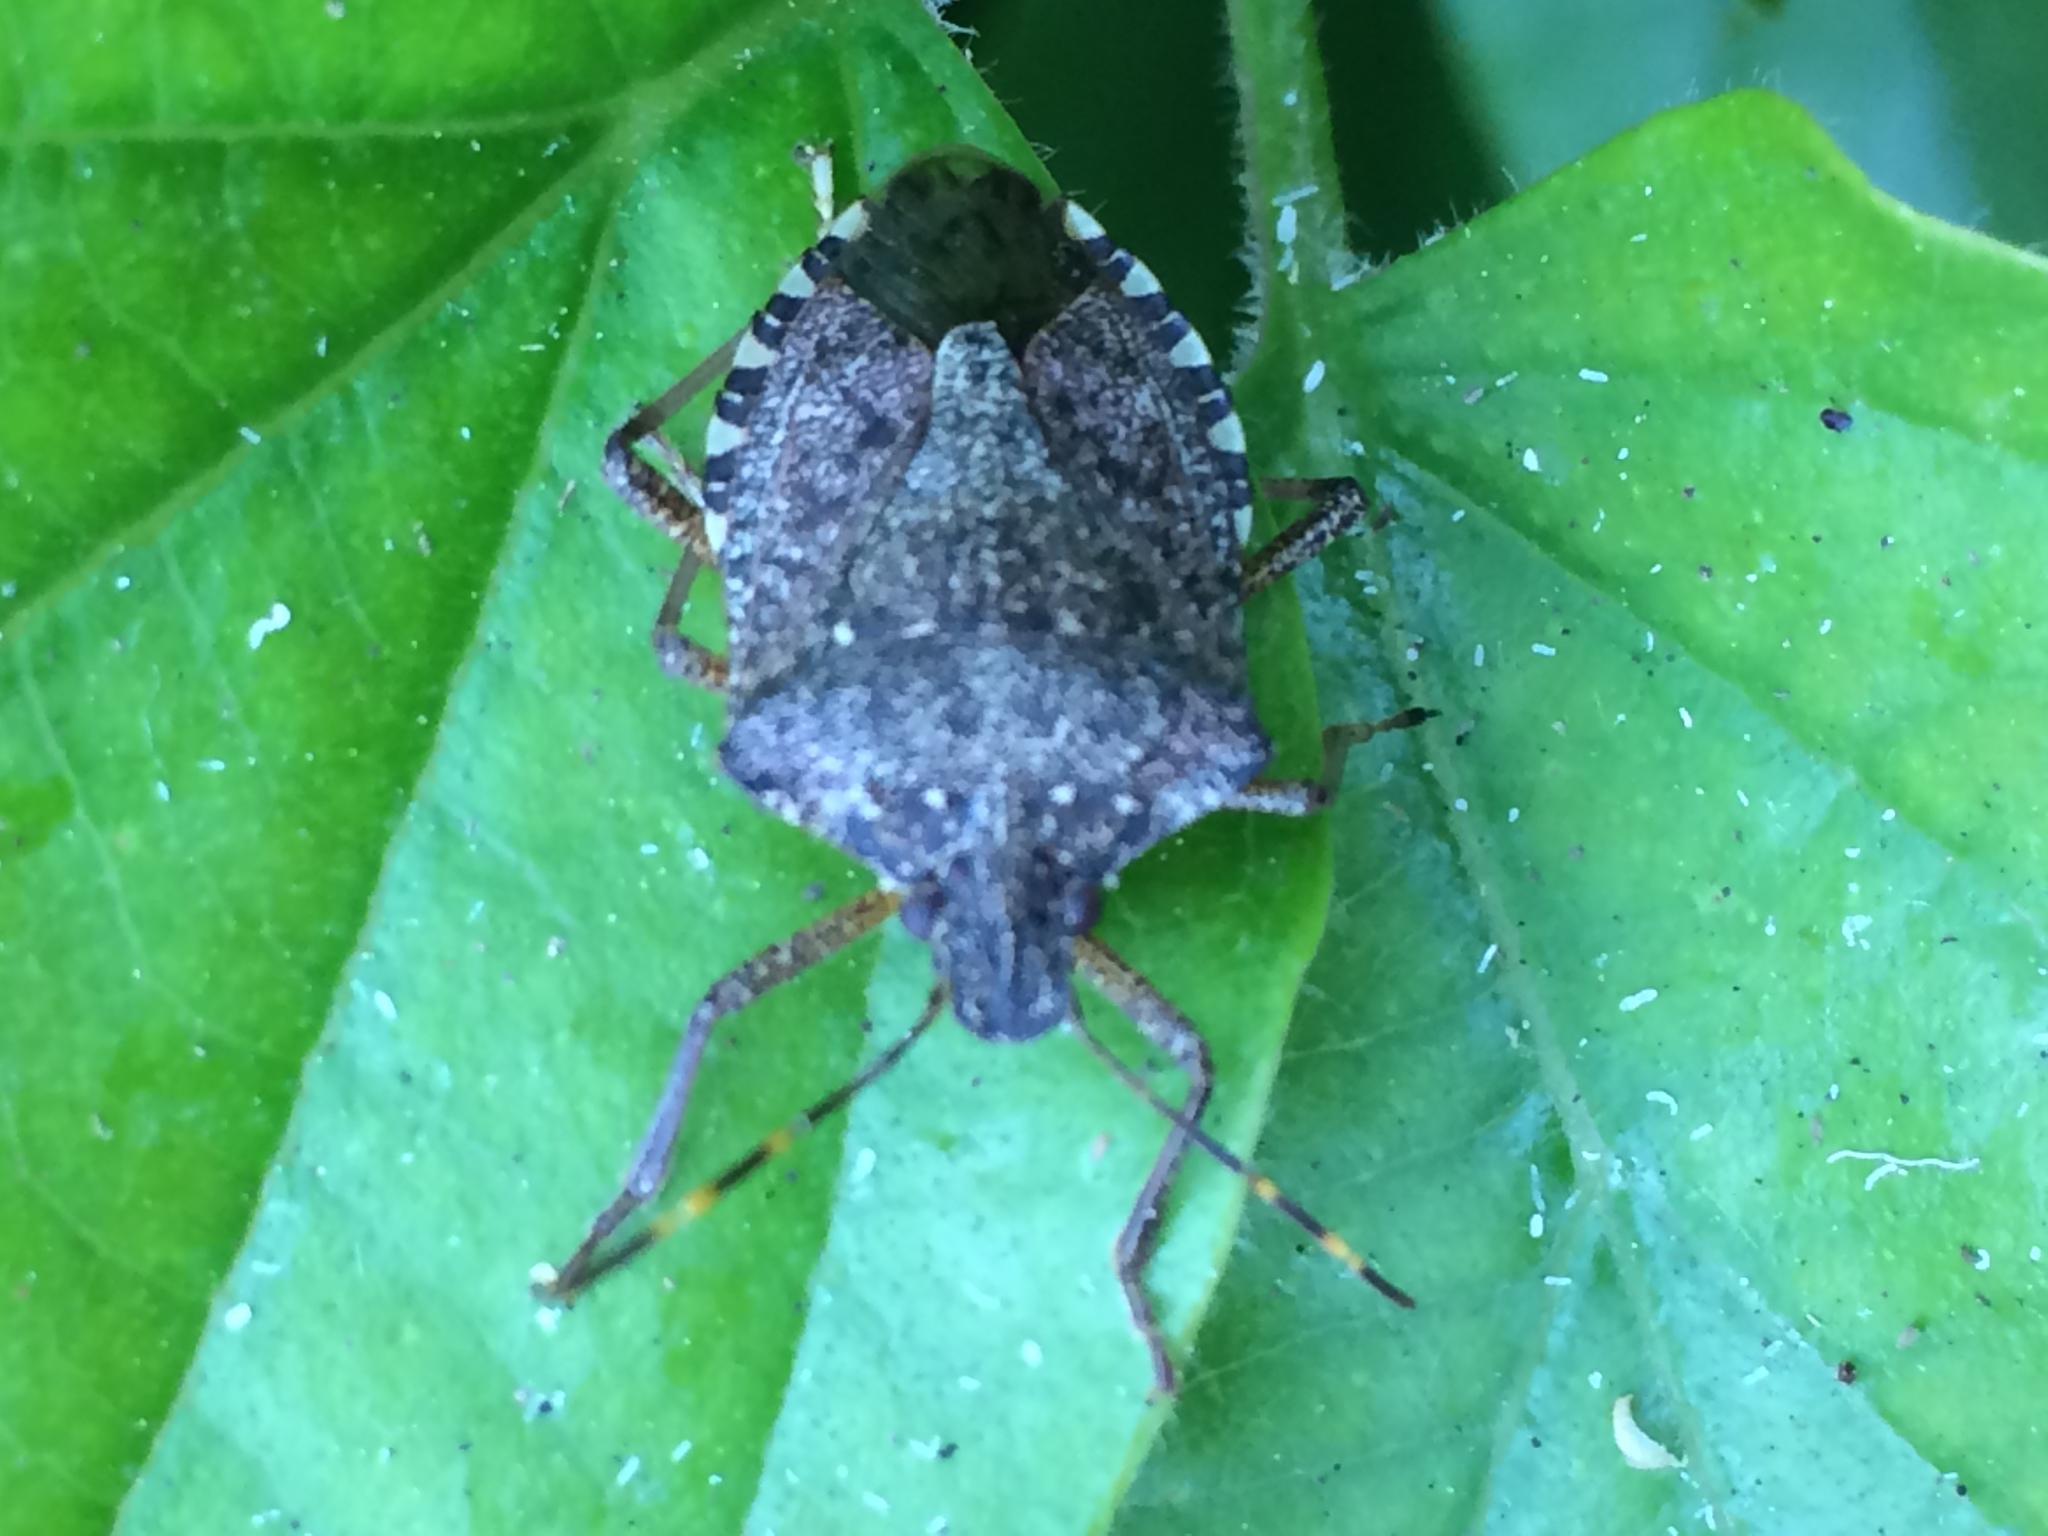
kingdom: Animalia
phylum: Arthropoda
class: Insecta
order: Hemiptera
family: Pentatomidae
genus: Halyomorpha
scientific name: Halyomorpha halys
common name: Brown marmorated stink bug
